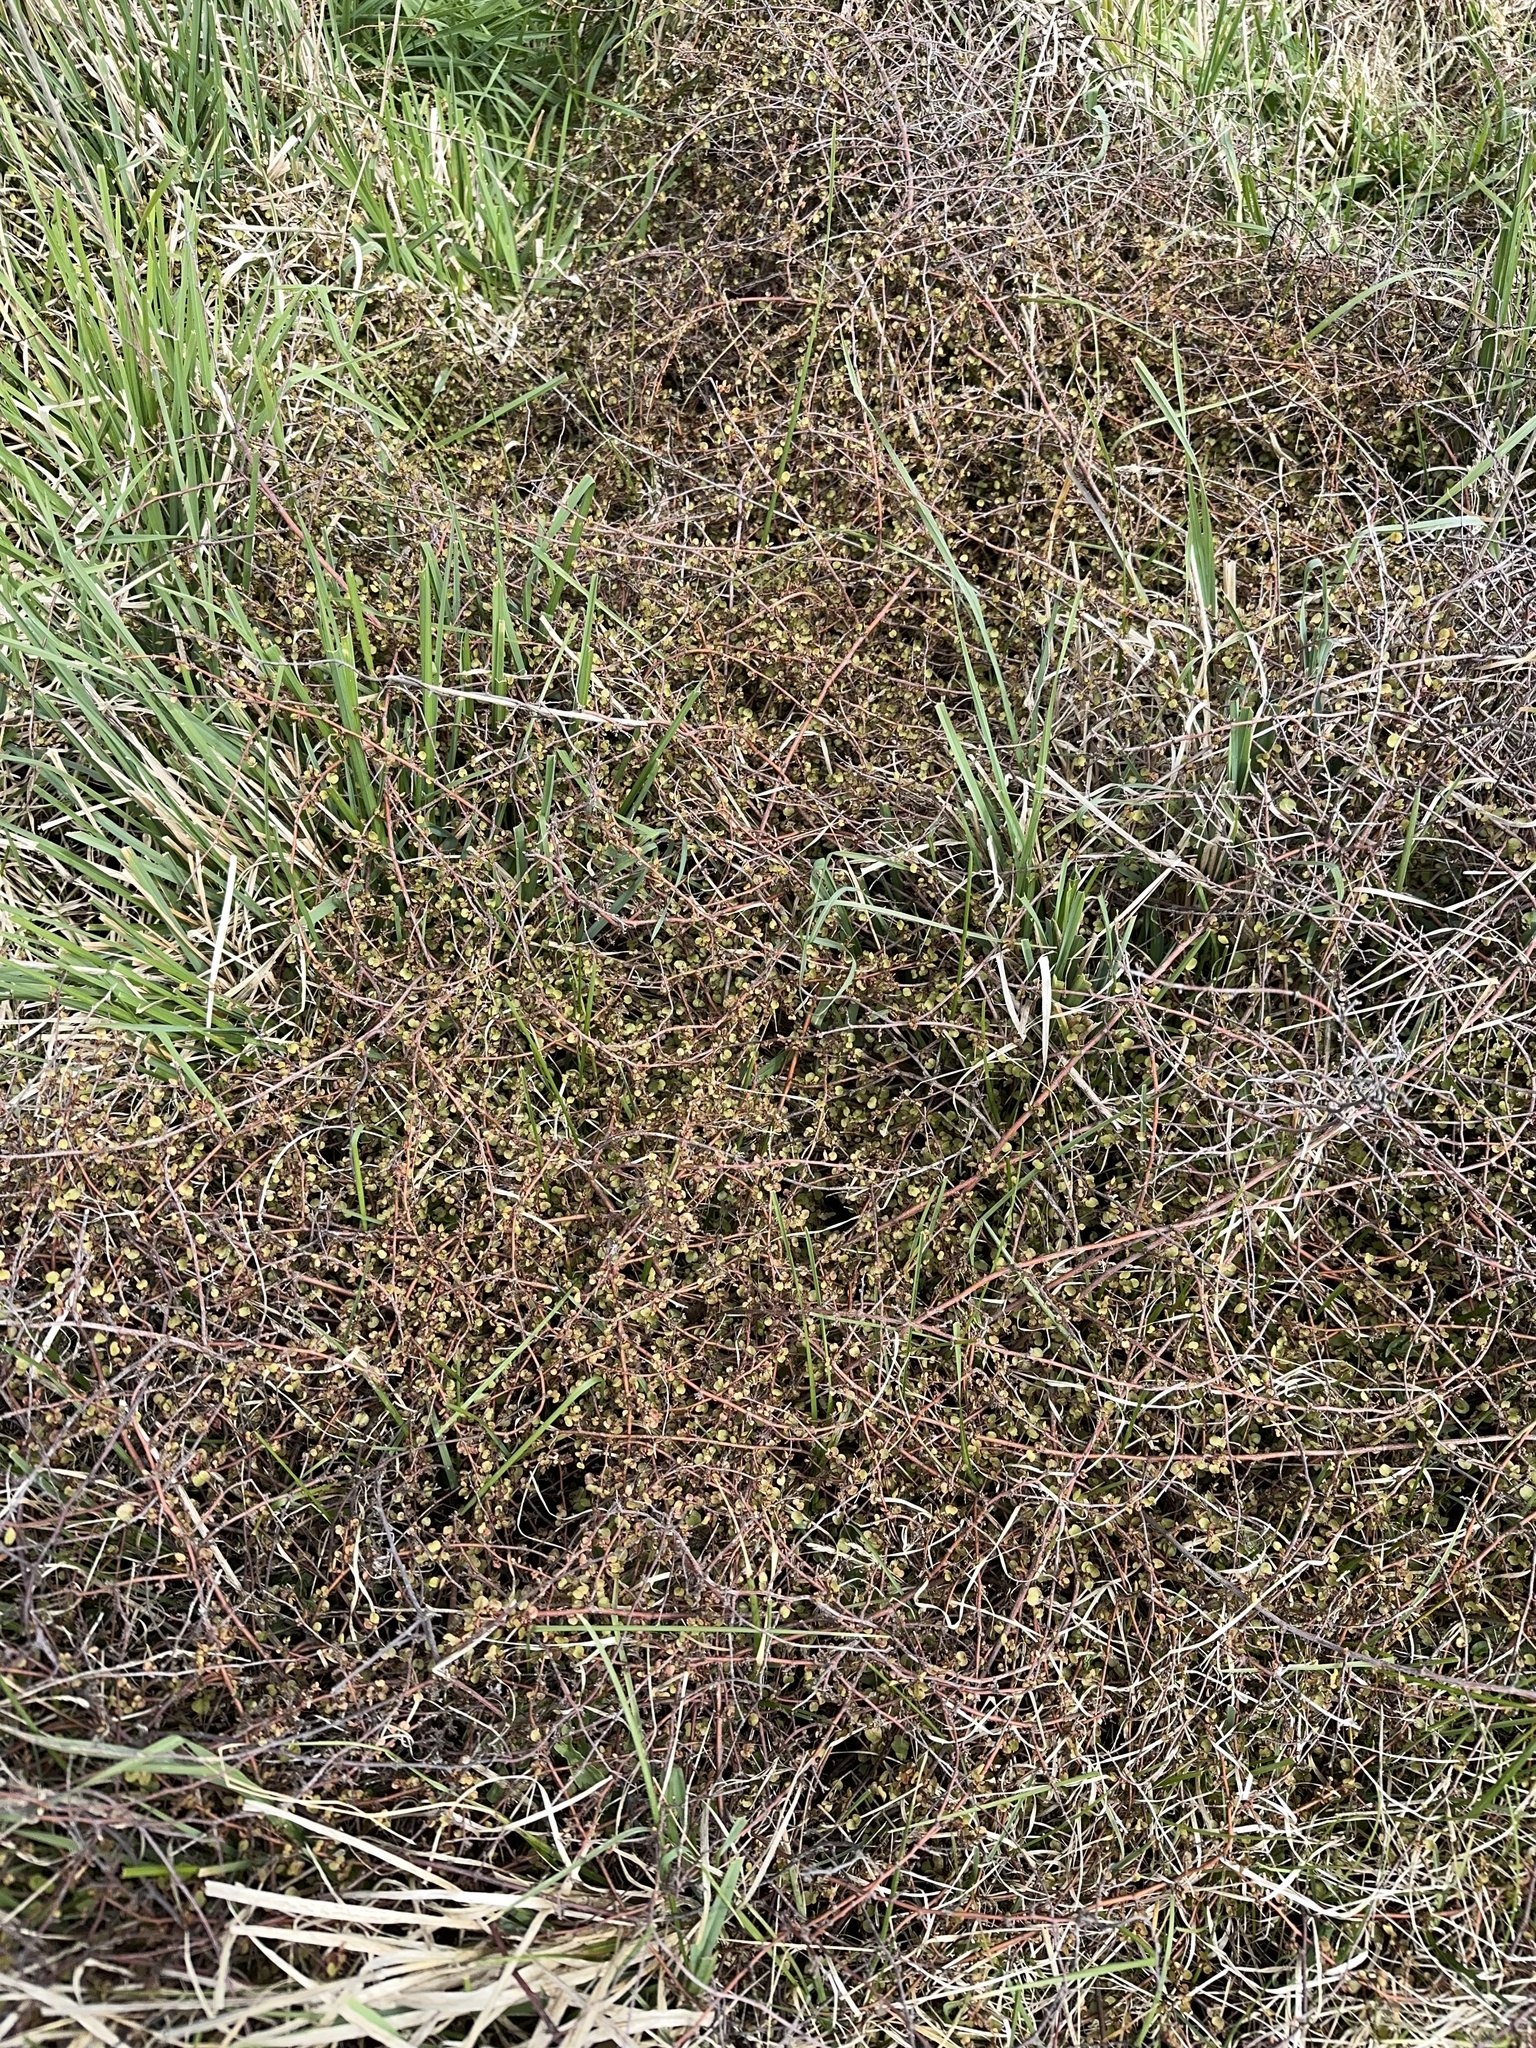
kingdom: Plantae
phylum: Tracheophyta
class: Magnoliopsida
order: Caryophyllales
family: Polygonaceae
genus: Muehlenbeckia
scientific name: Muehlenbeckia complexa
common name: Wireplant
